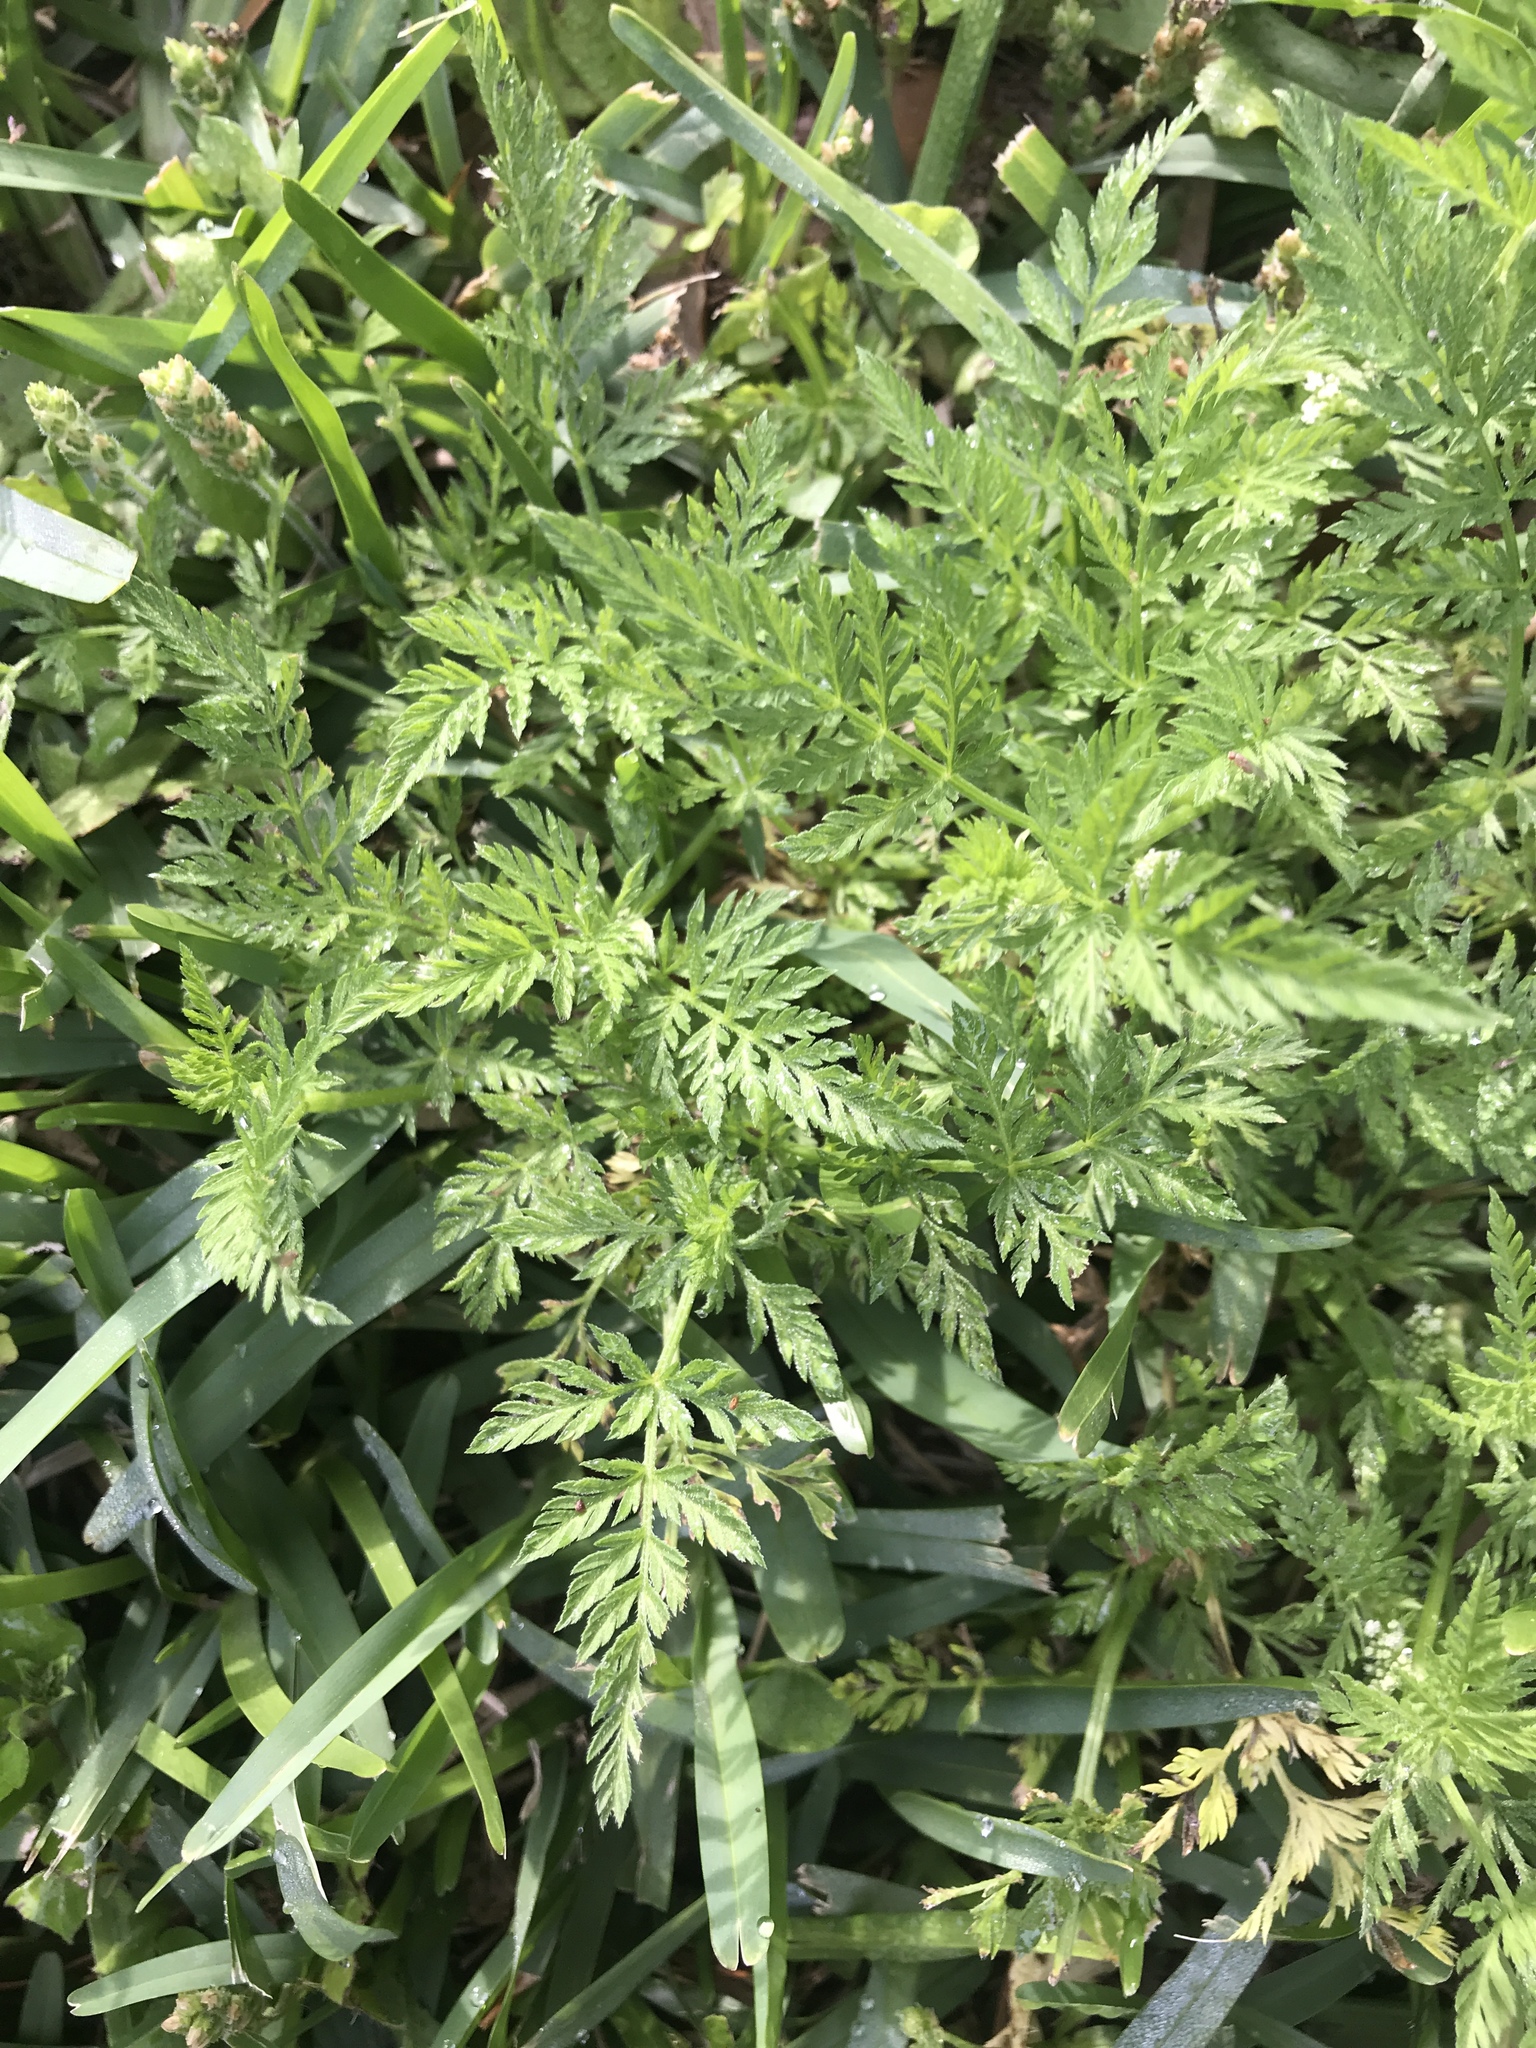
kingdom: Plantae
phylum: Tracheophyta
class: Magnoliopsida
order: Apiales
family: Apiaceae
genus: Torilis
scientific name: Torilis nodosa
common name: Knotted hedge-parsley
